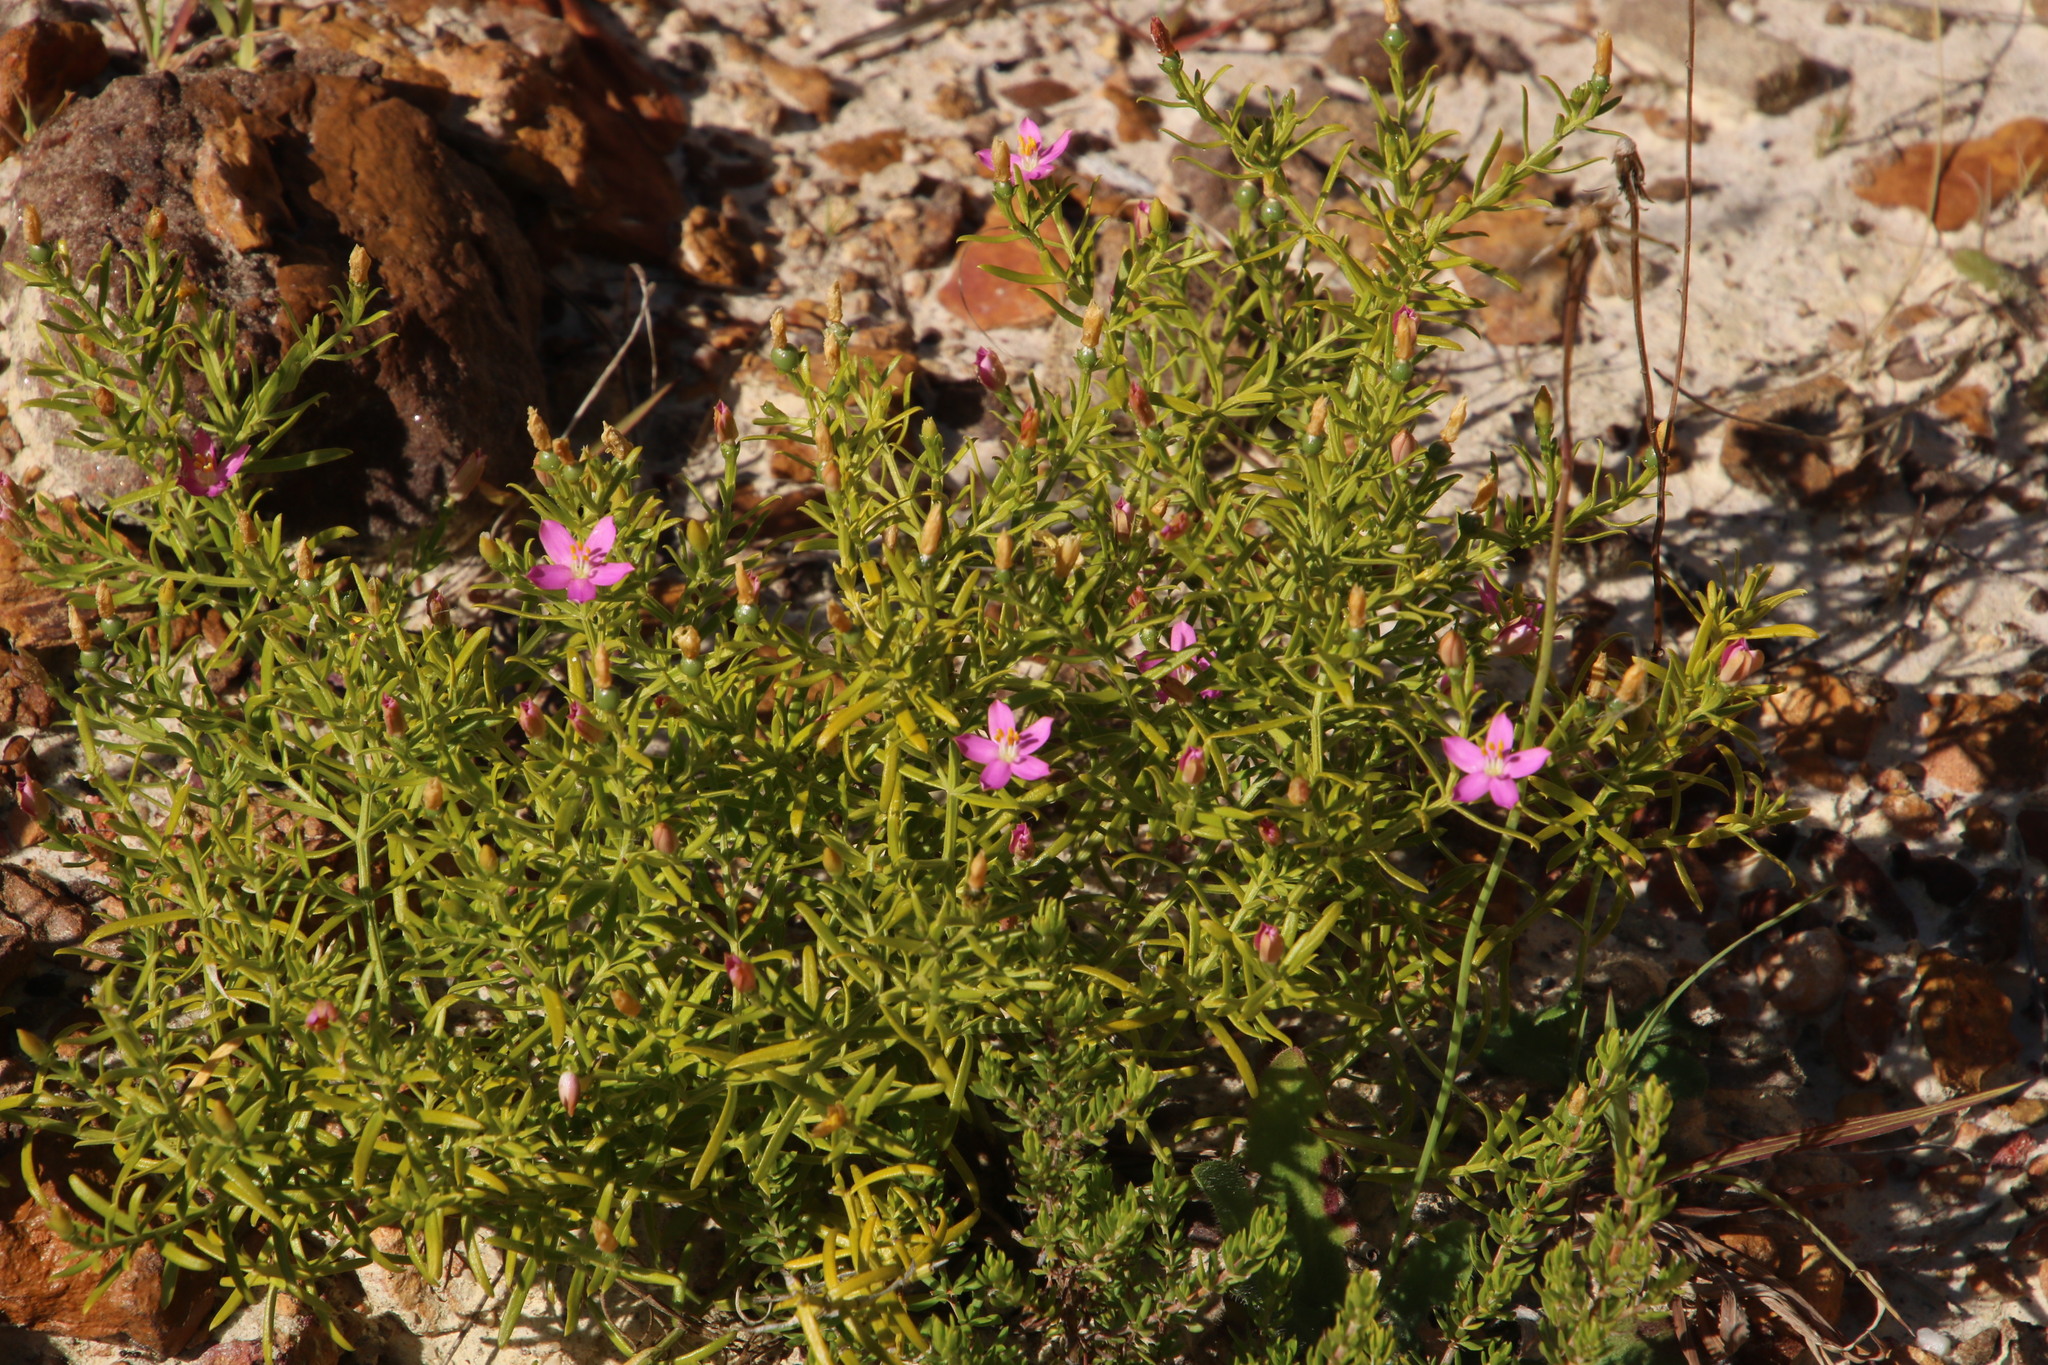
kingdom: Plantae
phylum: Tracheophyta
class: Magnoliopsida
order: Gentianales
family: Gentianaceae
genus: Chironia
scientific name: Chironia baccifera
